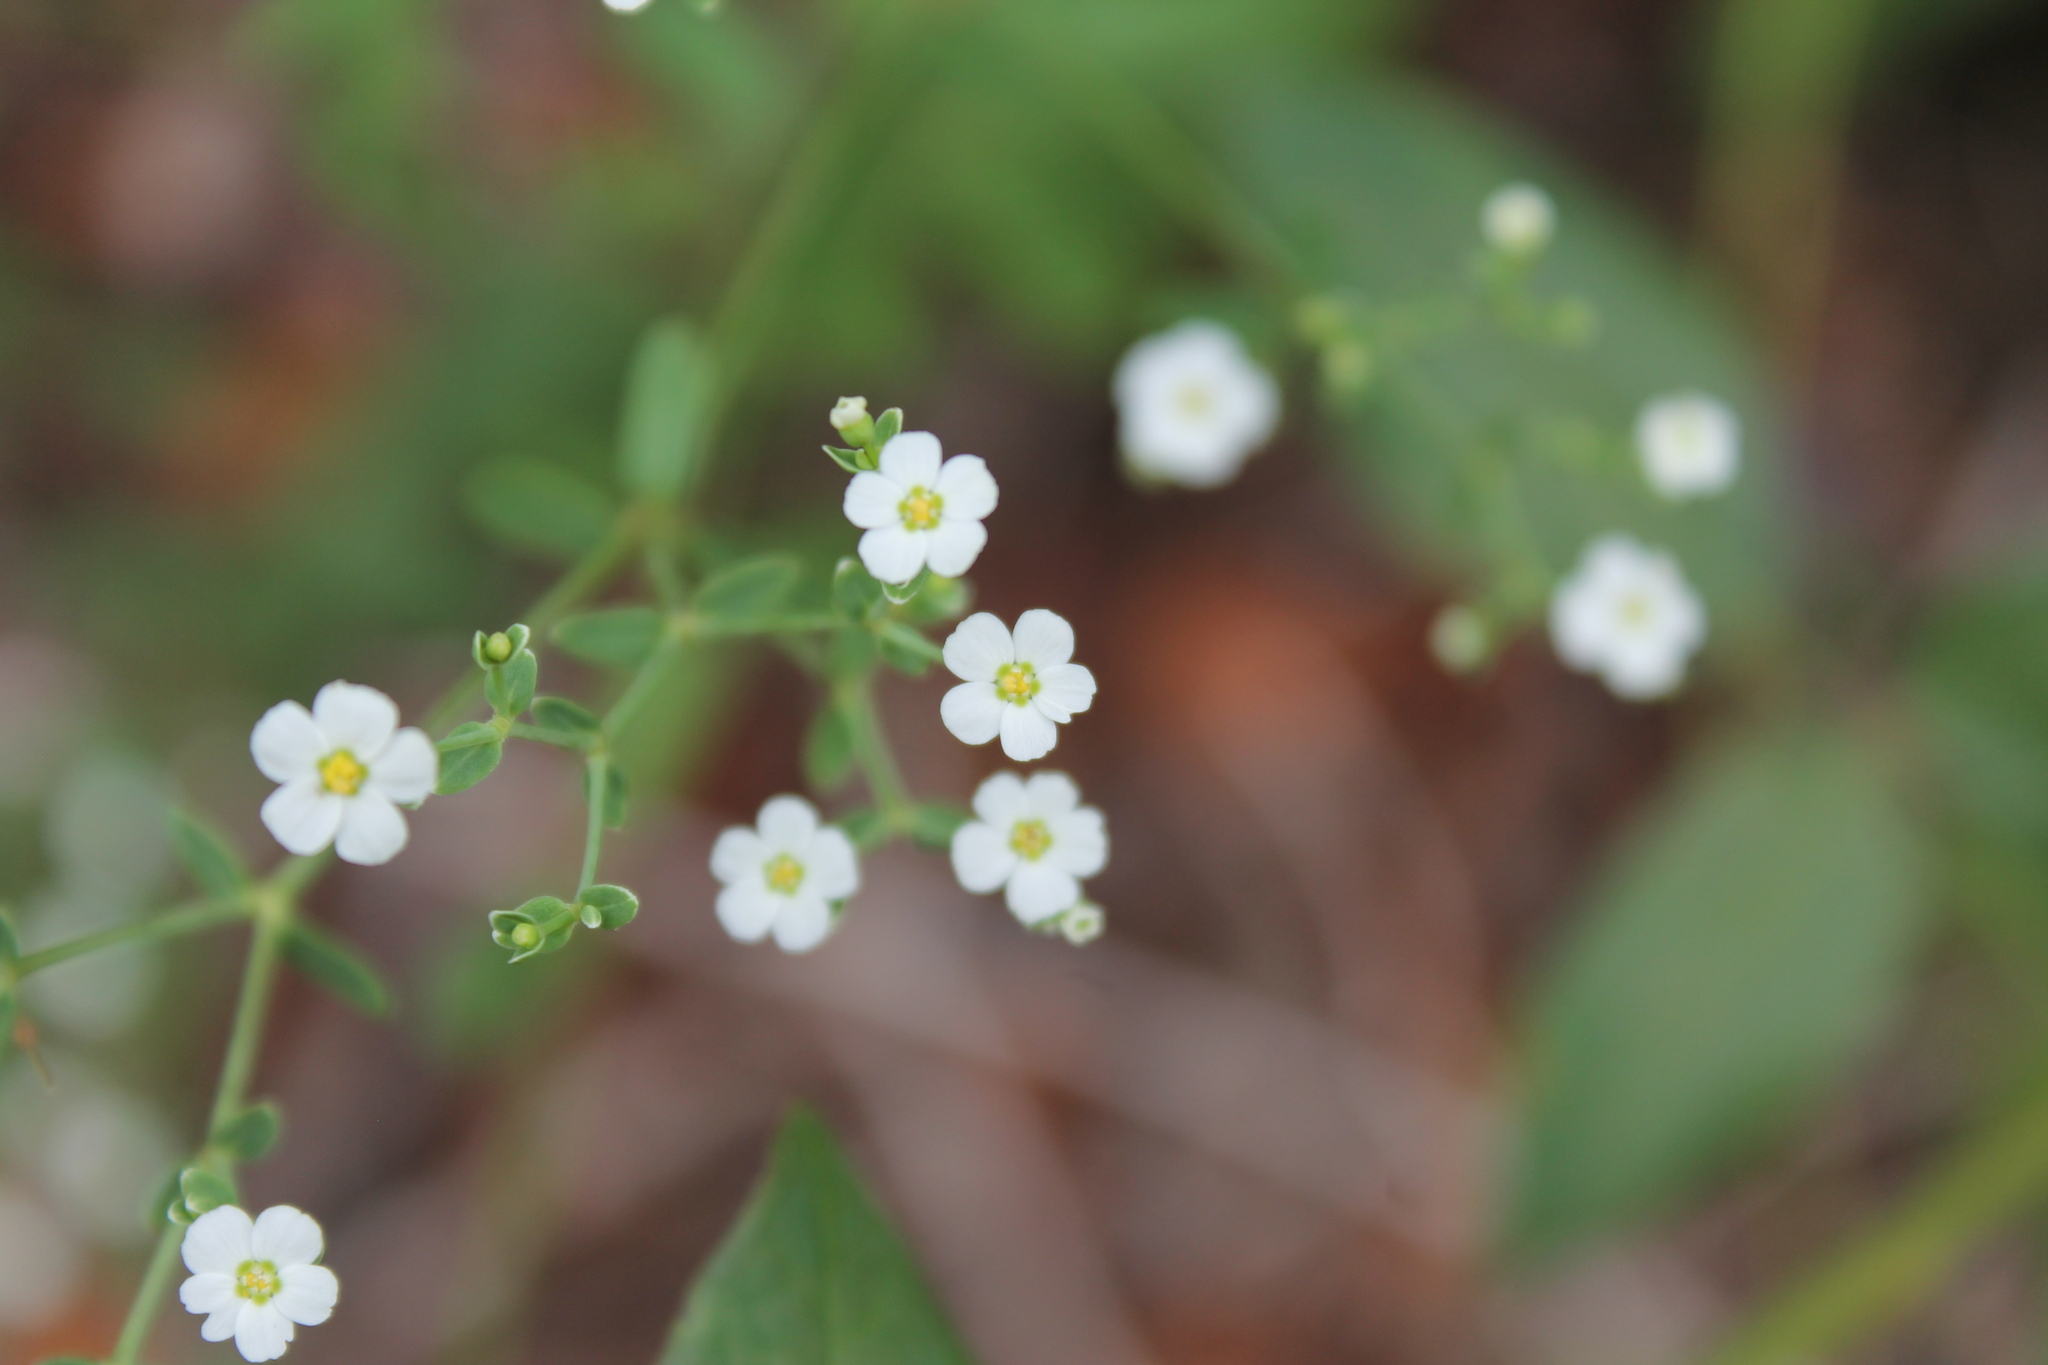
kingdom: Plantae
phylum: Tracheophyta
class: Magnoliopsida
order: Malpighiales
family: Euphorbiaceae
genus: Euphorbia
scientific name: Euphorbia corollata
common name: Flowering spurge
